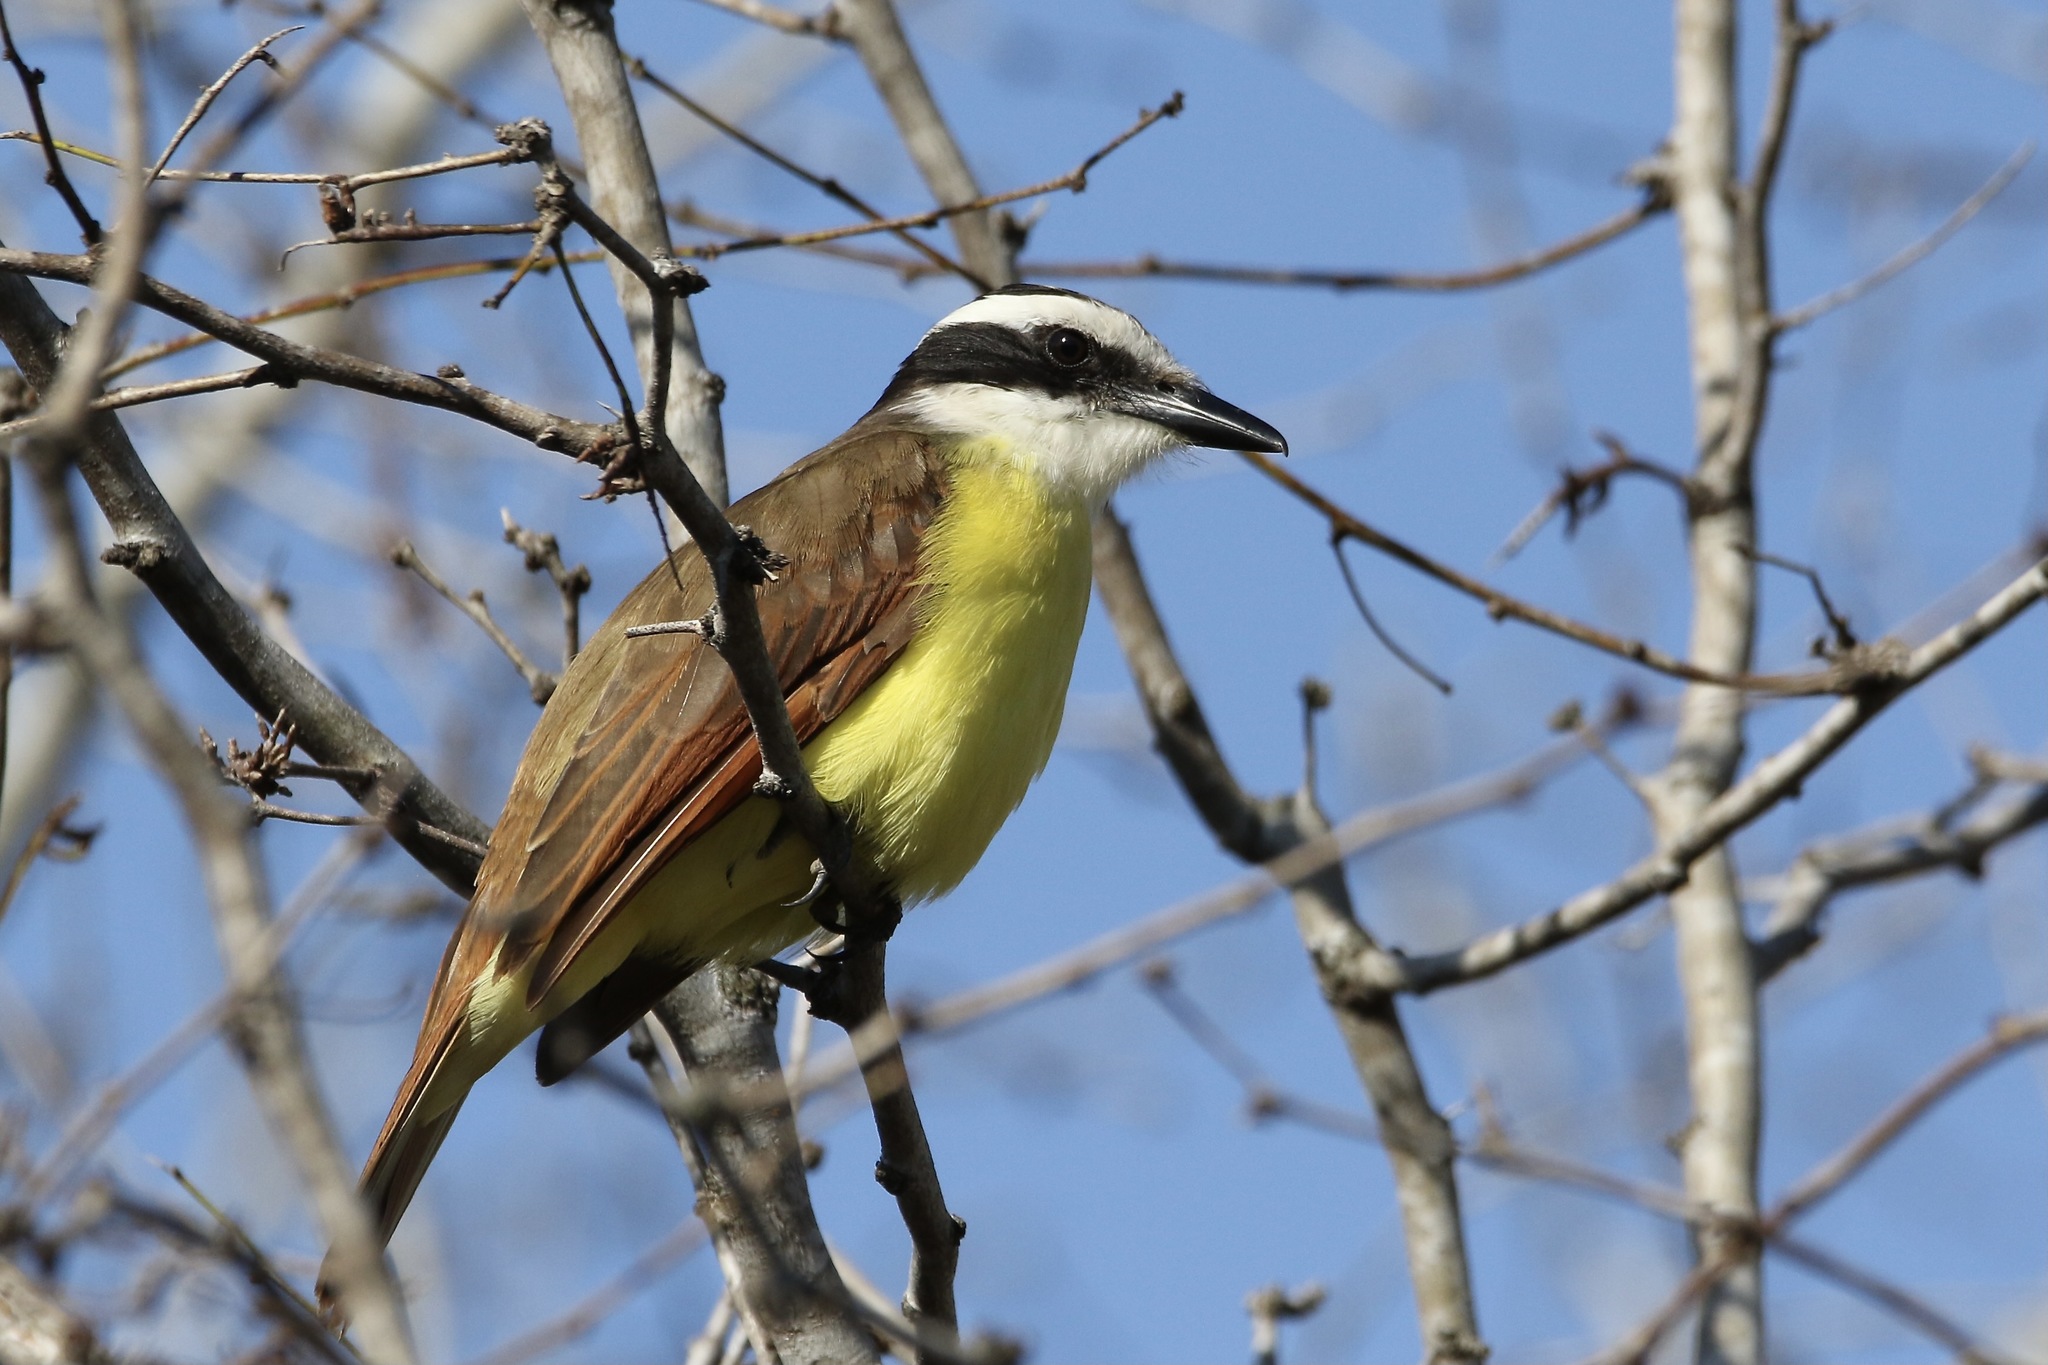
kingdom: Animalia
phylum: Chordata
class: Aves
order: Passeriformes
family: Tyrannidae
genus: Pitangus
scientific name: Pitangus sulphuratus
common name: Great kiskadee
